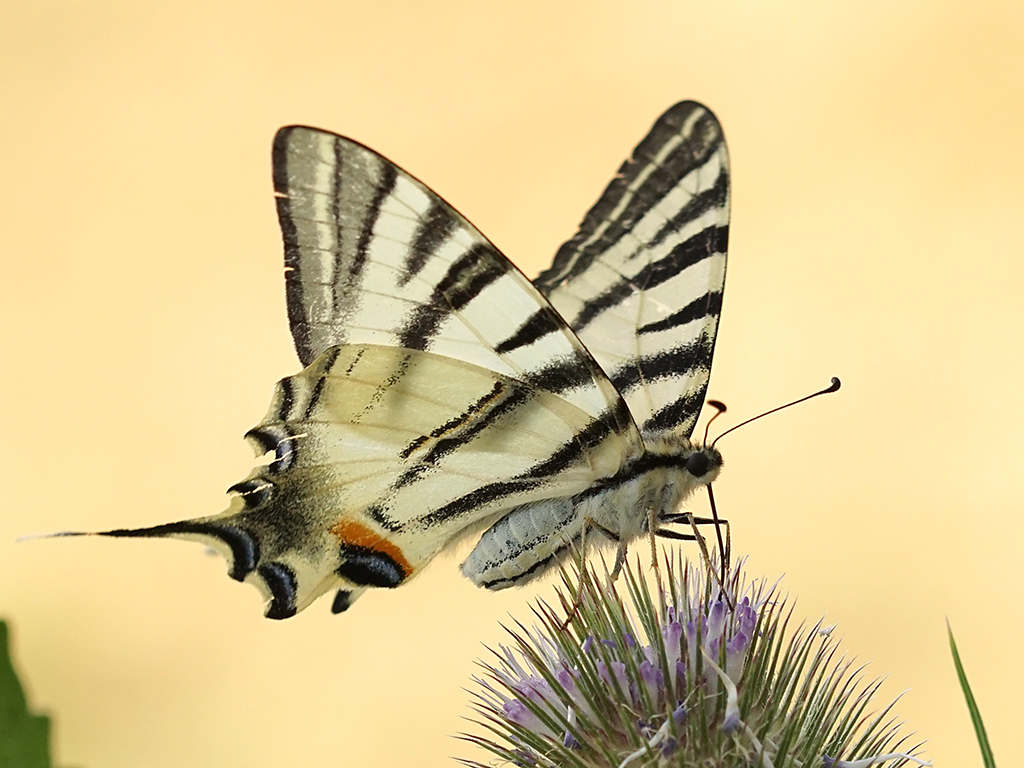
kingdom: Animalia
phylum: Arthropoda
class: Insecta
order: Lepidoptera
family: Papilionidae
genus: Iphiclides
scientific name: Iphiclides podalirius
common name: Scarce swallowtail
